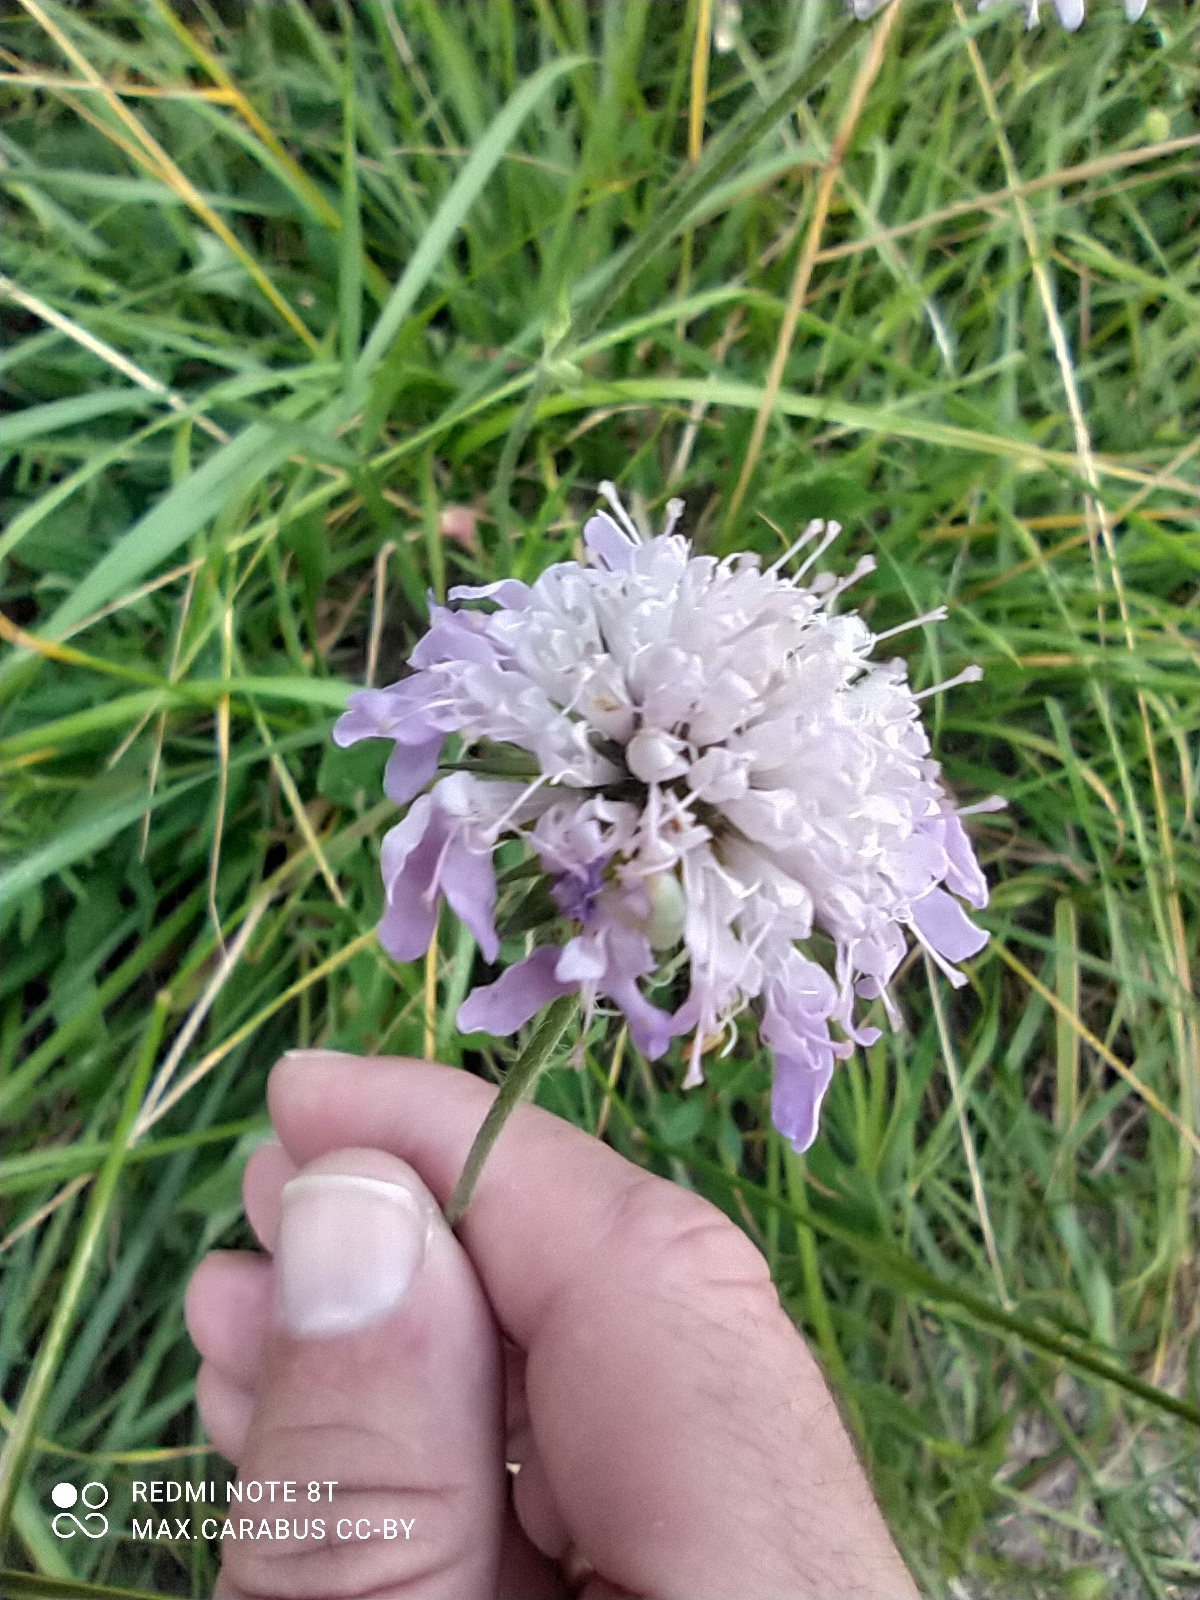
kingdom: Plantae
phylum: Tracheophyta
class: Magnoliopsida
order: Dipsacales
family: Caprifoliaceae
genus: Knautia
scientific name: Knautia arvensis
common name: Field scabiosa
